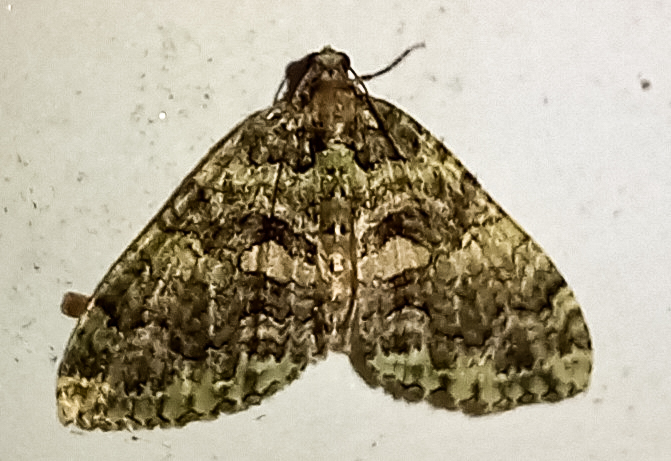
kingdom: Animalia
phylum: Arthropoda
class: Insecta
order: Lepidoptera
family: Geometridae
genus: Austrocidaria
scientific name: Austrocidaria similata
